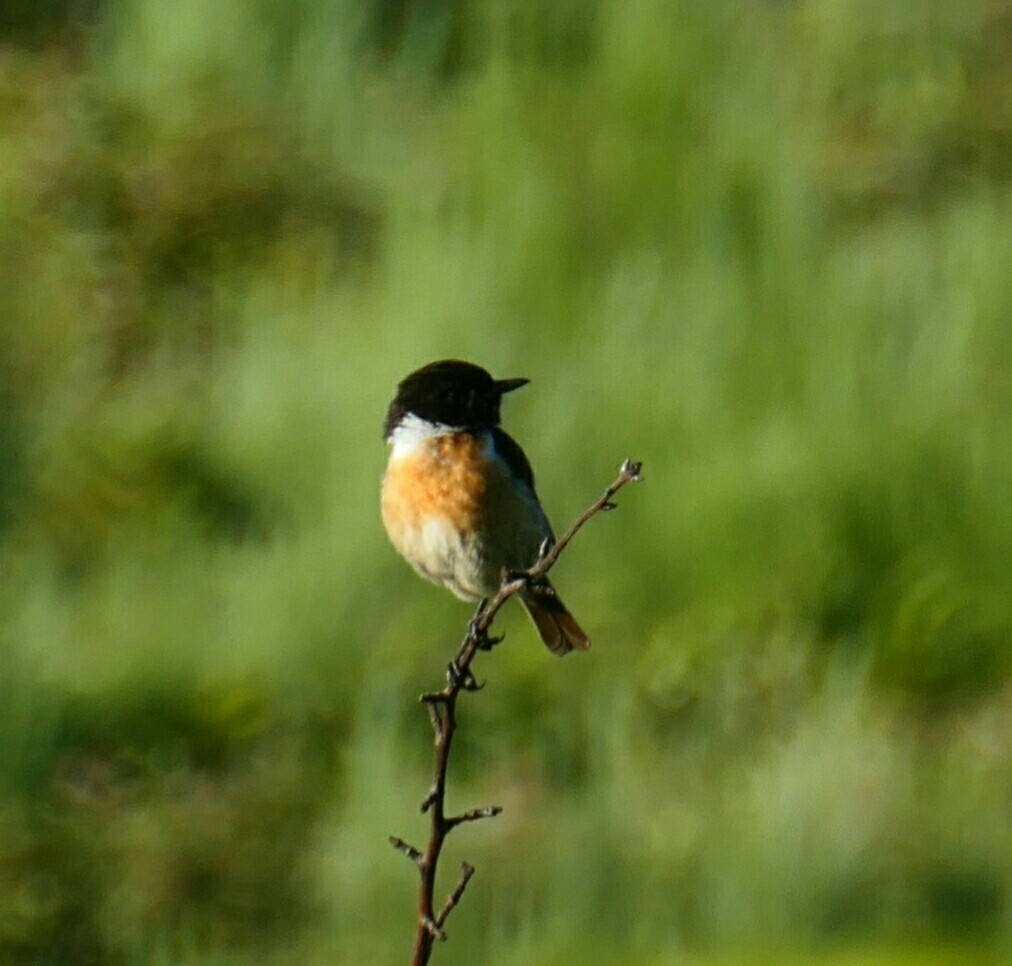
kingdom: Animalia
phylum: Chordata
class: Aves
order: Passeriformes
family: Muscicapidae
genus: Saxicola
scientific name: Saxicola rubicola
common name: European stonechat
